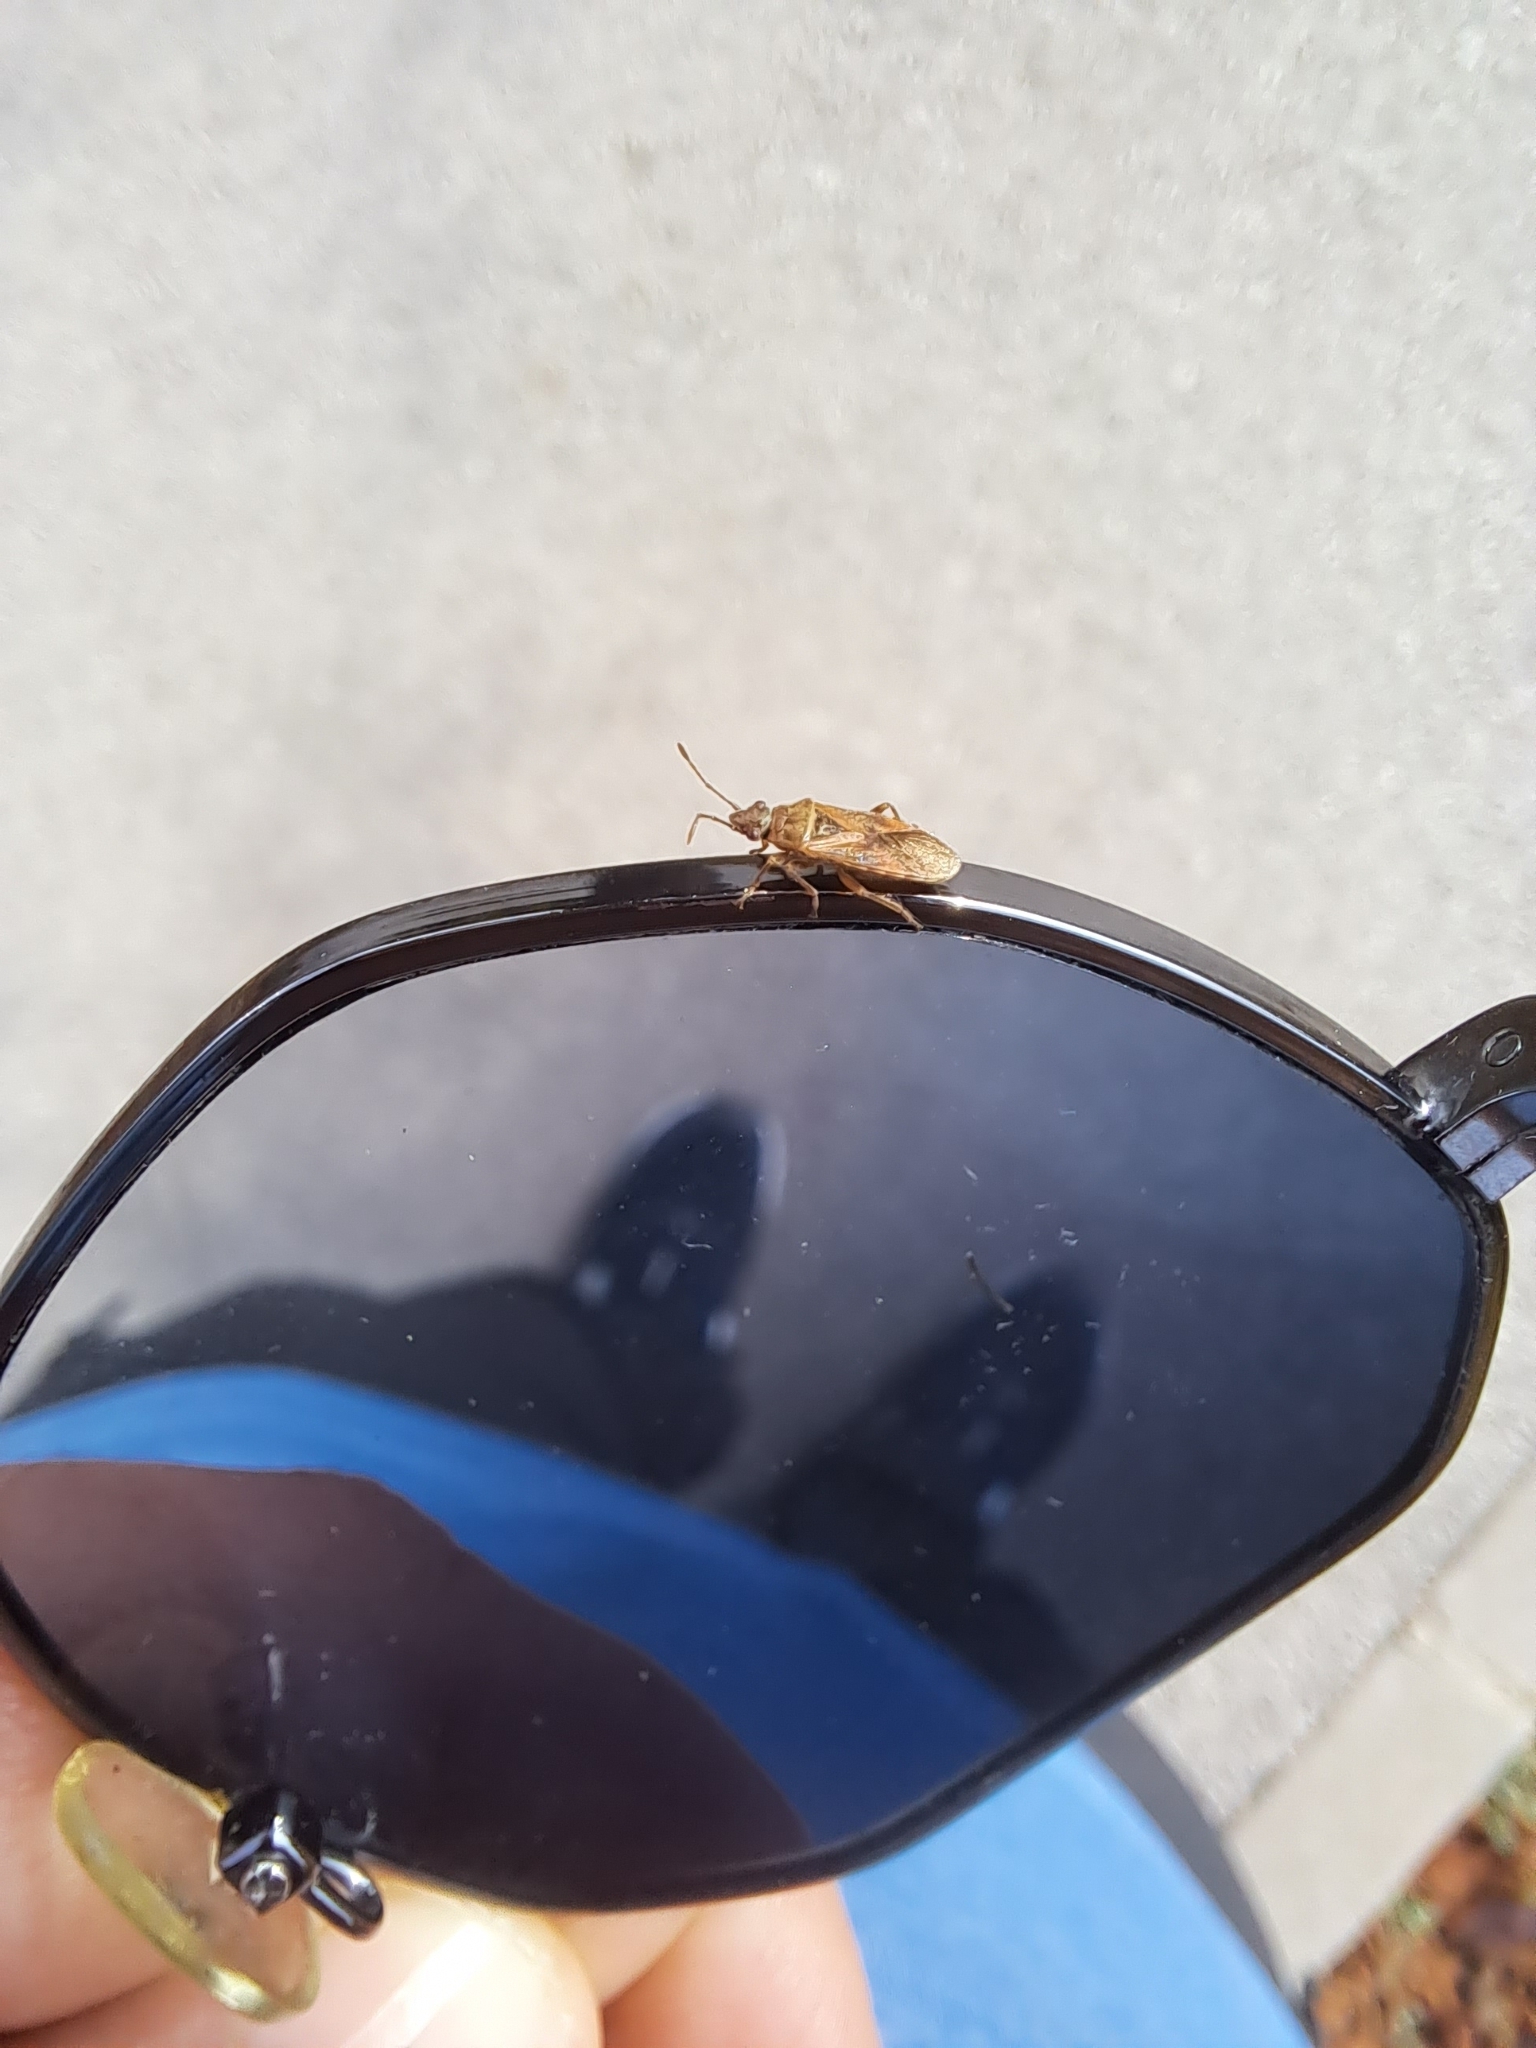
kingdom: Animalia
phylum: Arthropoda
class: Insecta
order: Hemiptera
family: Lygaeidae
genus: Arocatus
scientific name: Arocatus longiceps
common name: Plane tree bug
